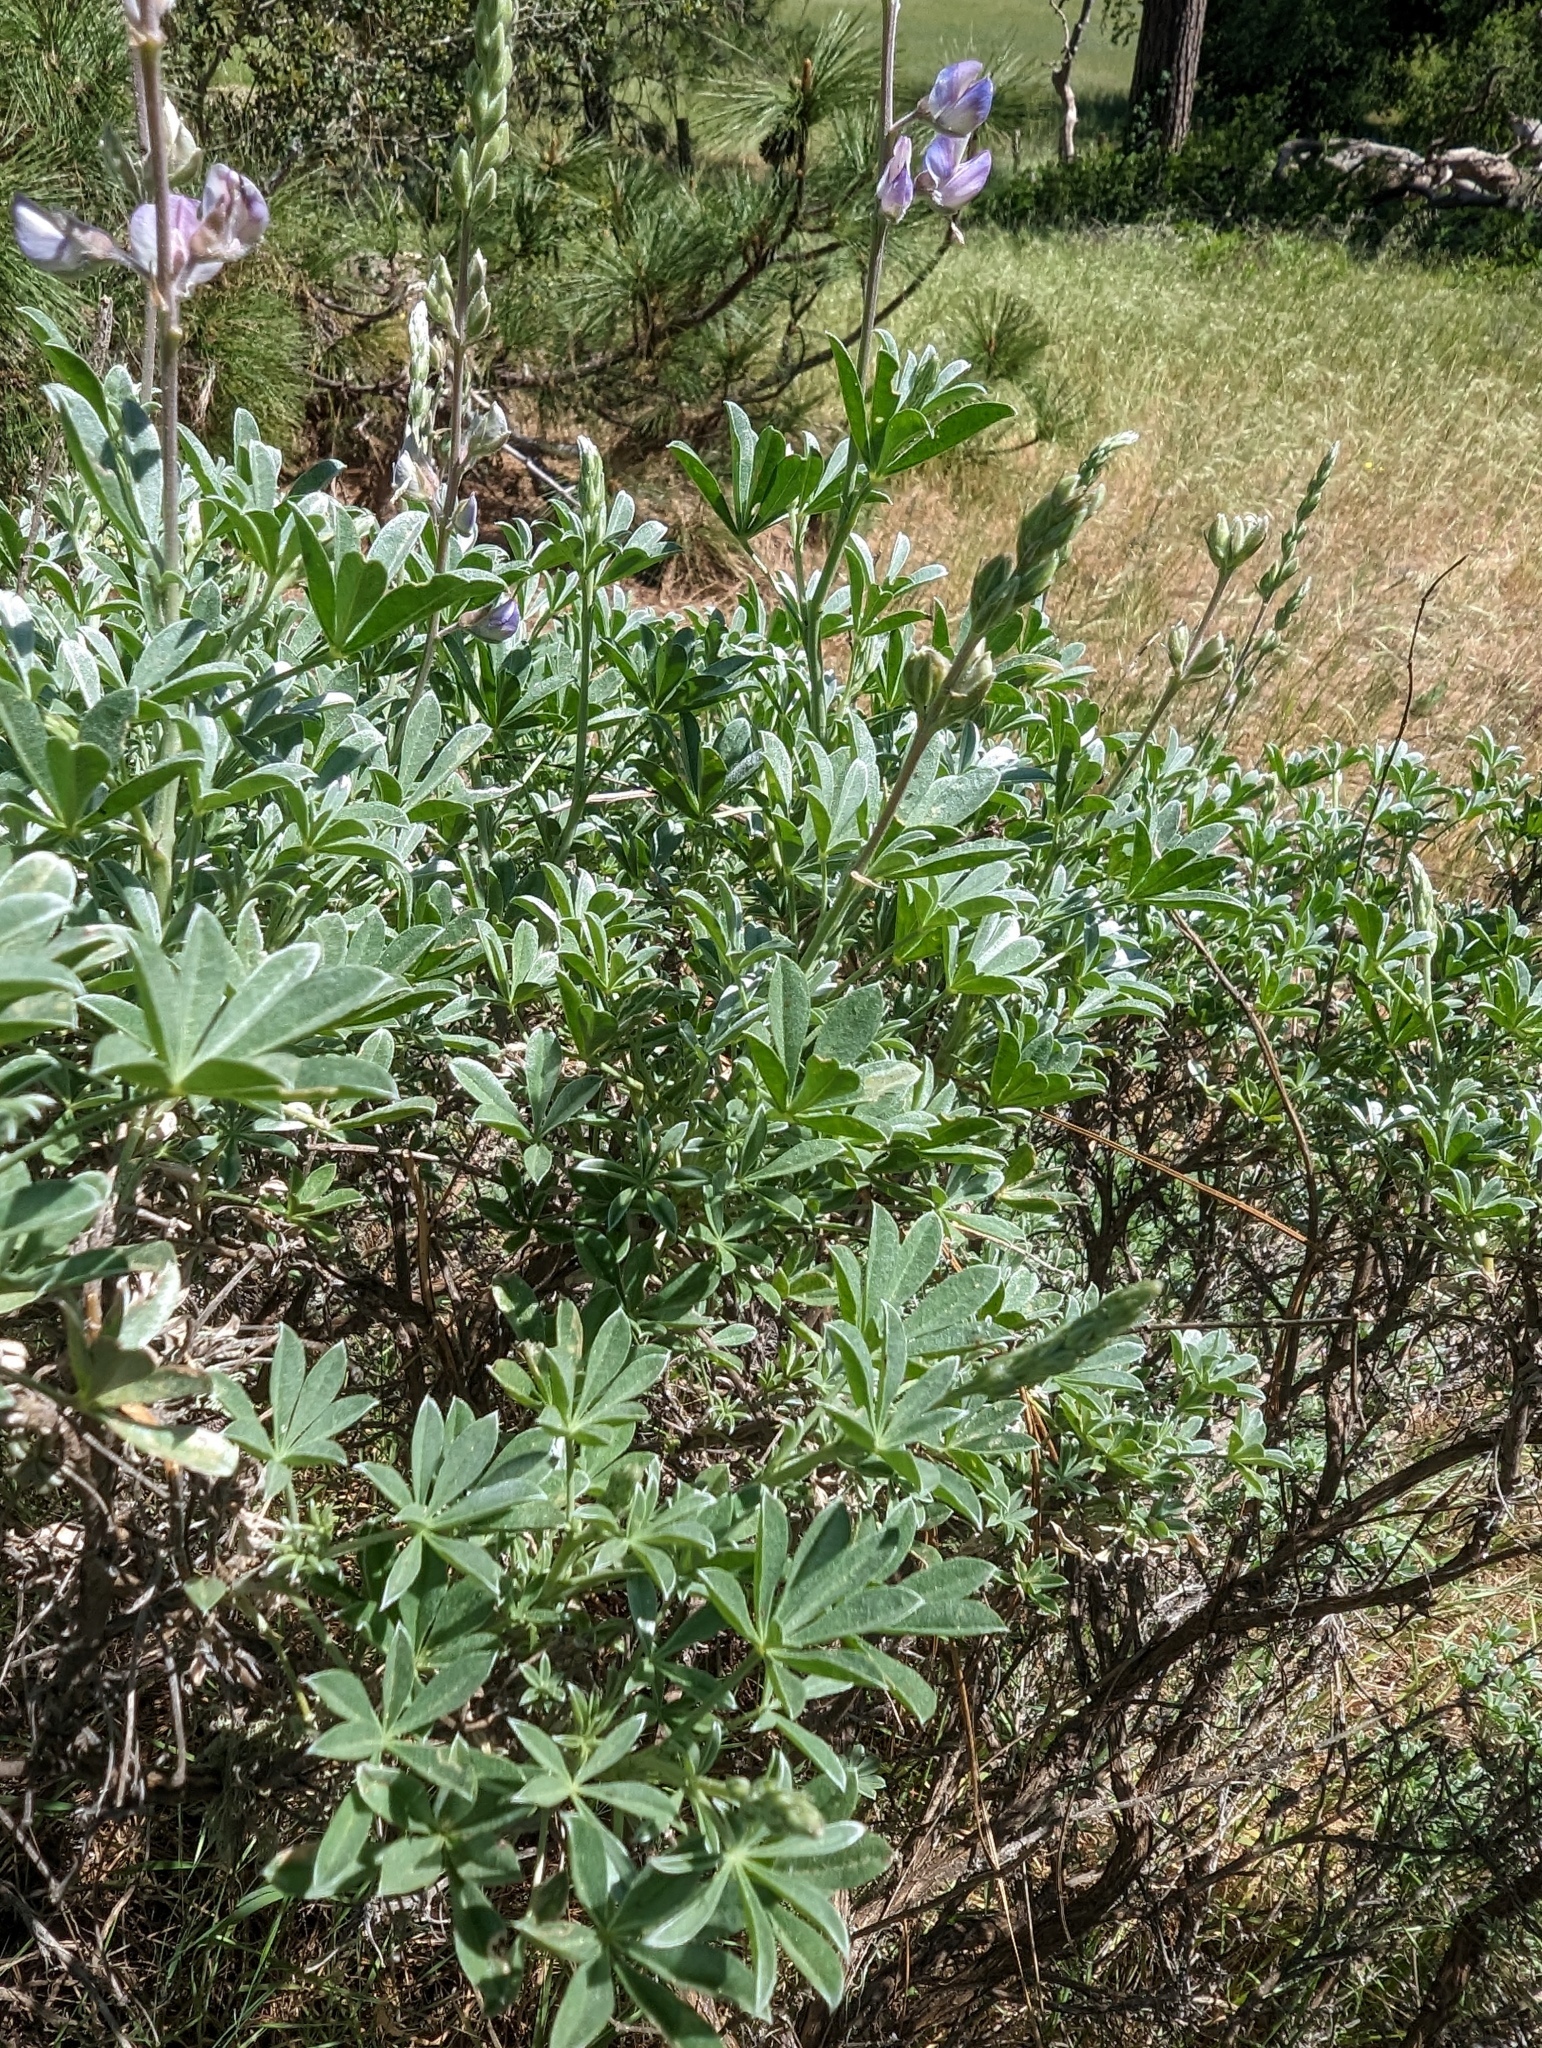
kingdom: Plantae
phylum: Tracheophyta
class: Magnoliopsida
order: Fabales
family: Fabaceae
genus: Lupinus
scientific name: Lupinus albifrons
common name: Foothill lupine
